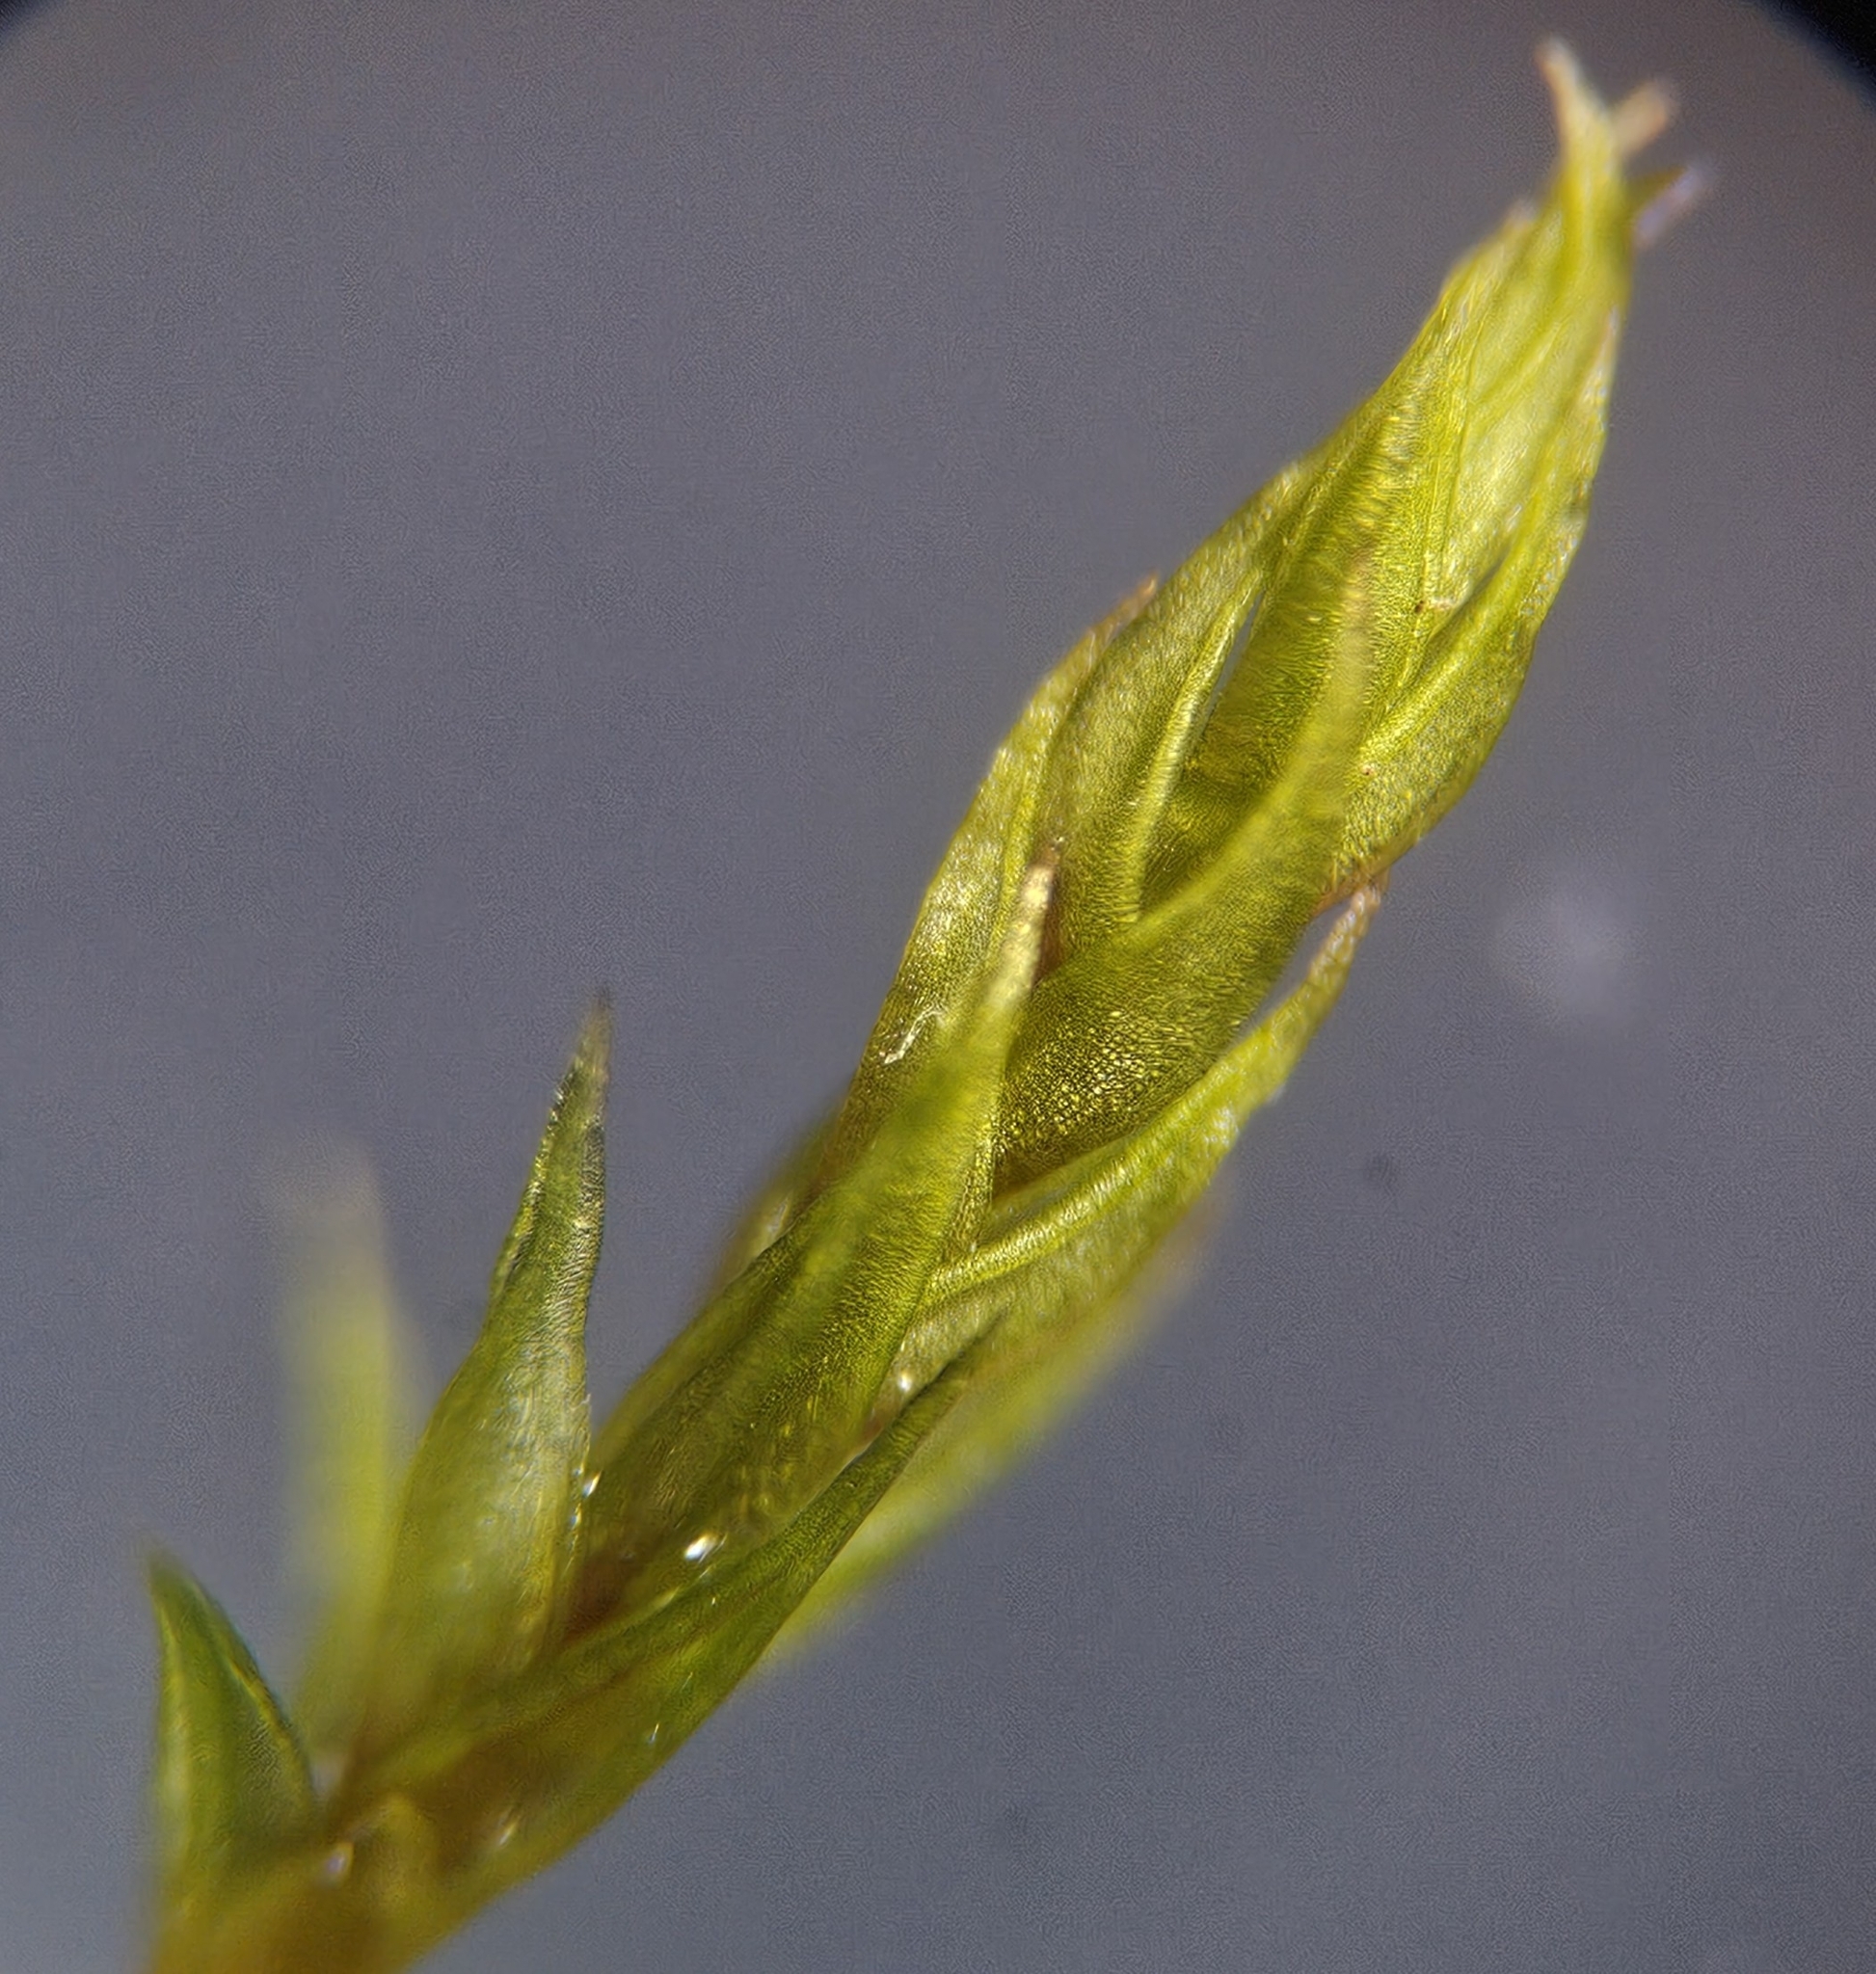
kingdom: Plantae
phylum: Bryophyta
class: Bryopsida
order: Dicranales
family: Ditrichaceae
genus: Ceratodon
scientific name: Ceratodon purpureus
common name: Redshank
